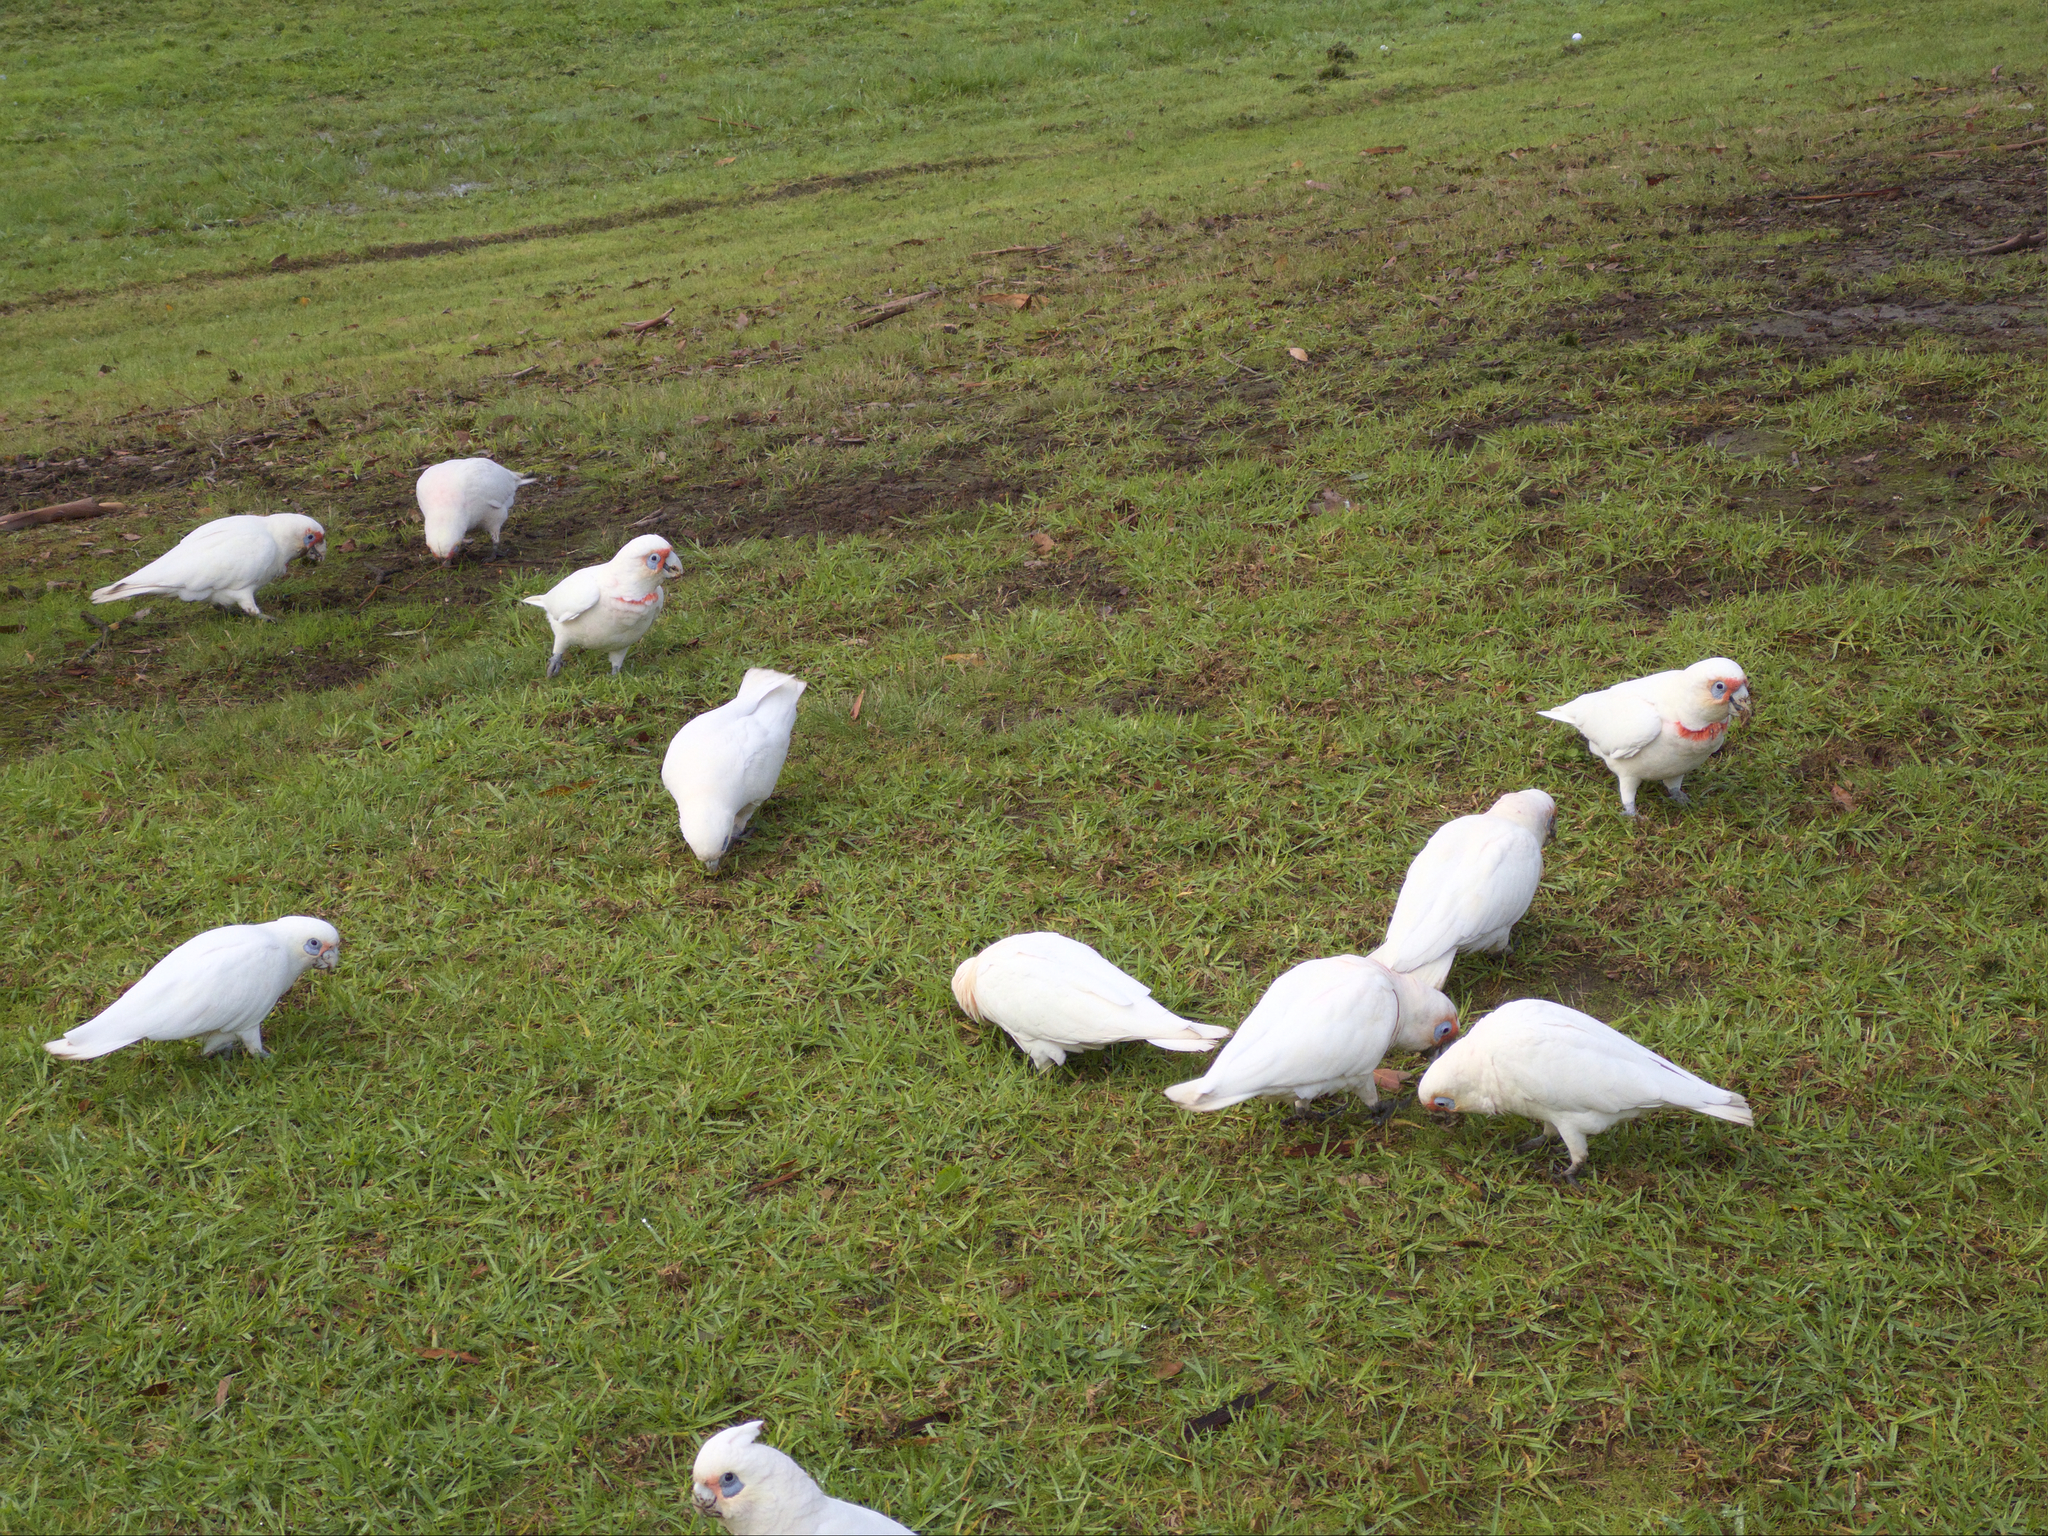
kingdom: Animalia
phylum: Chordata
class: Aves
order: Psittaciformes
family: Psittacidae
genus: Cacatua
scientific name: Cacatua tenuirostris
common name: Long-billed corella
